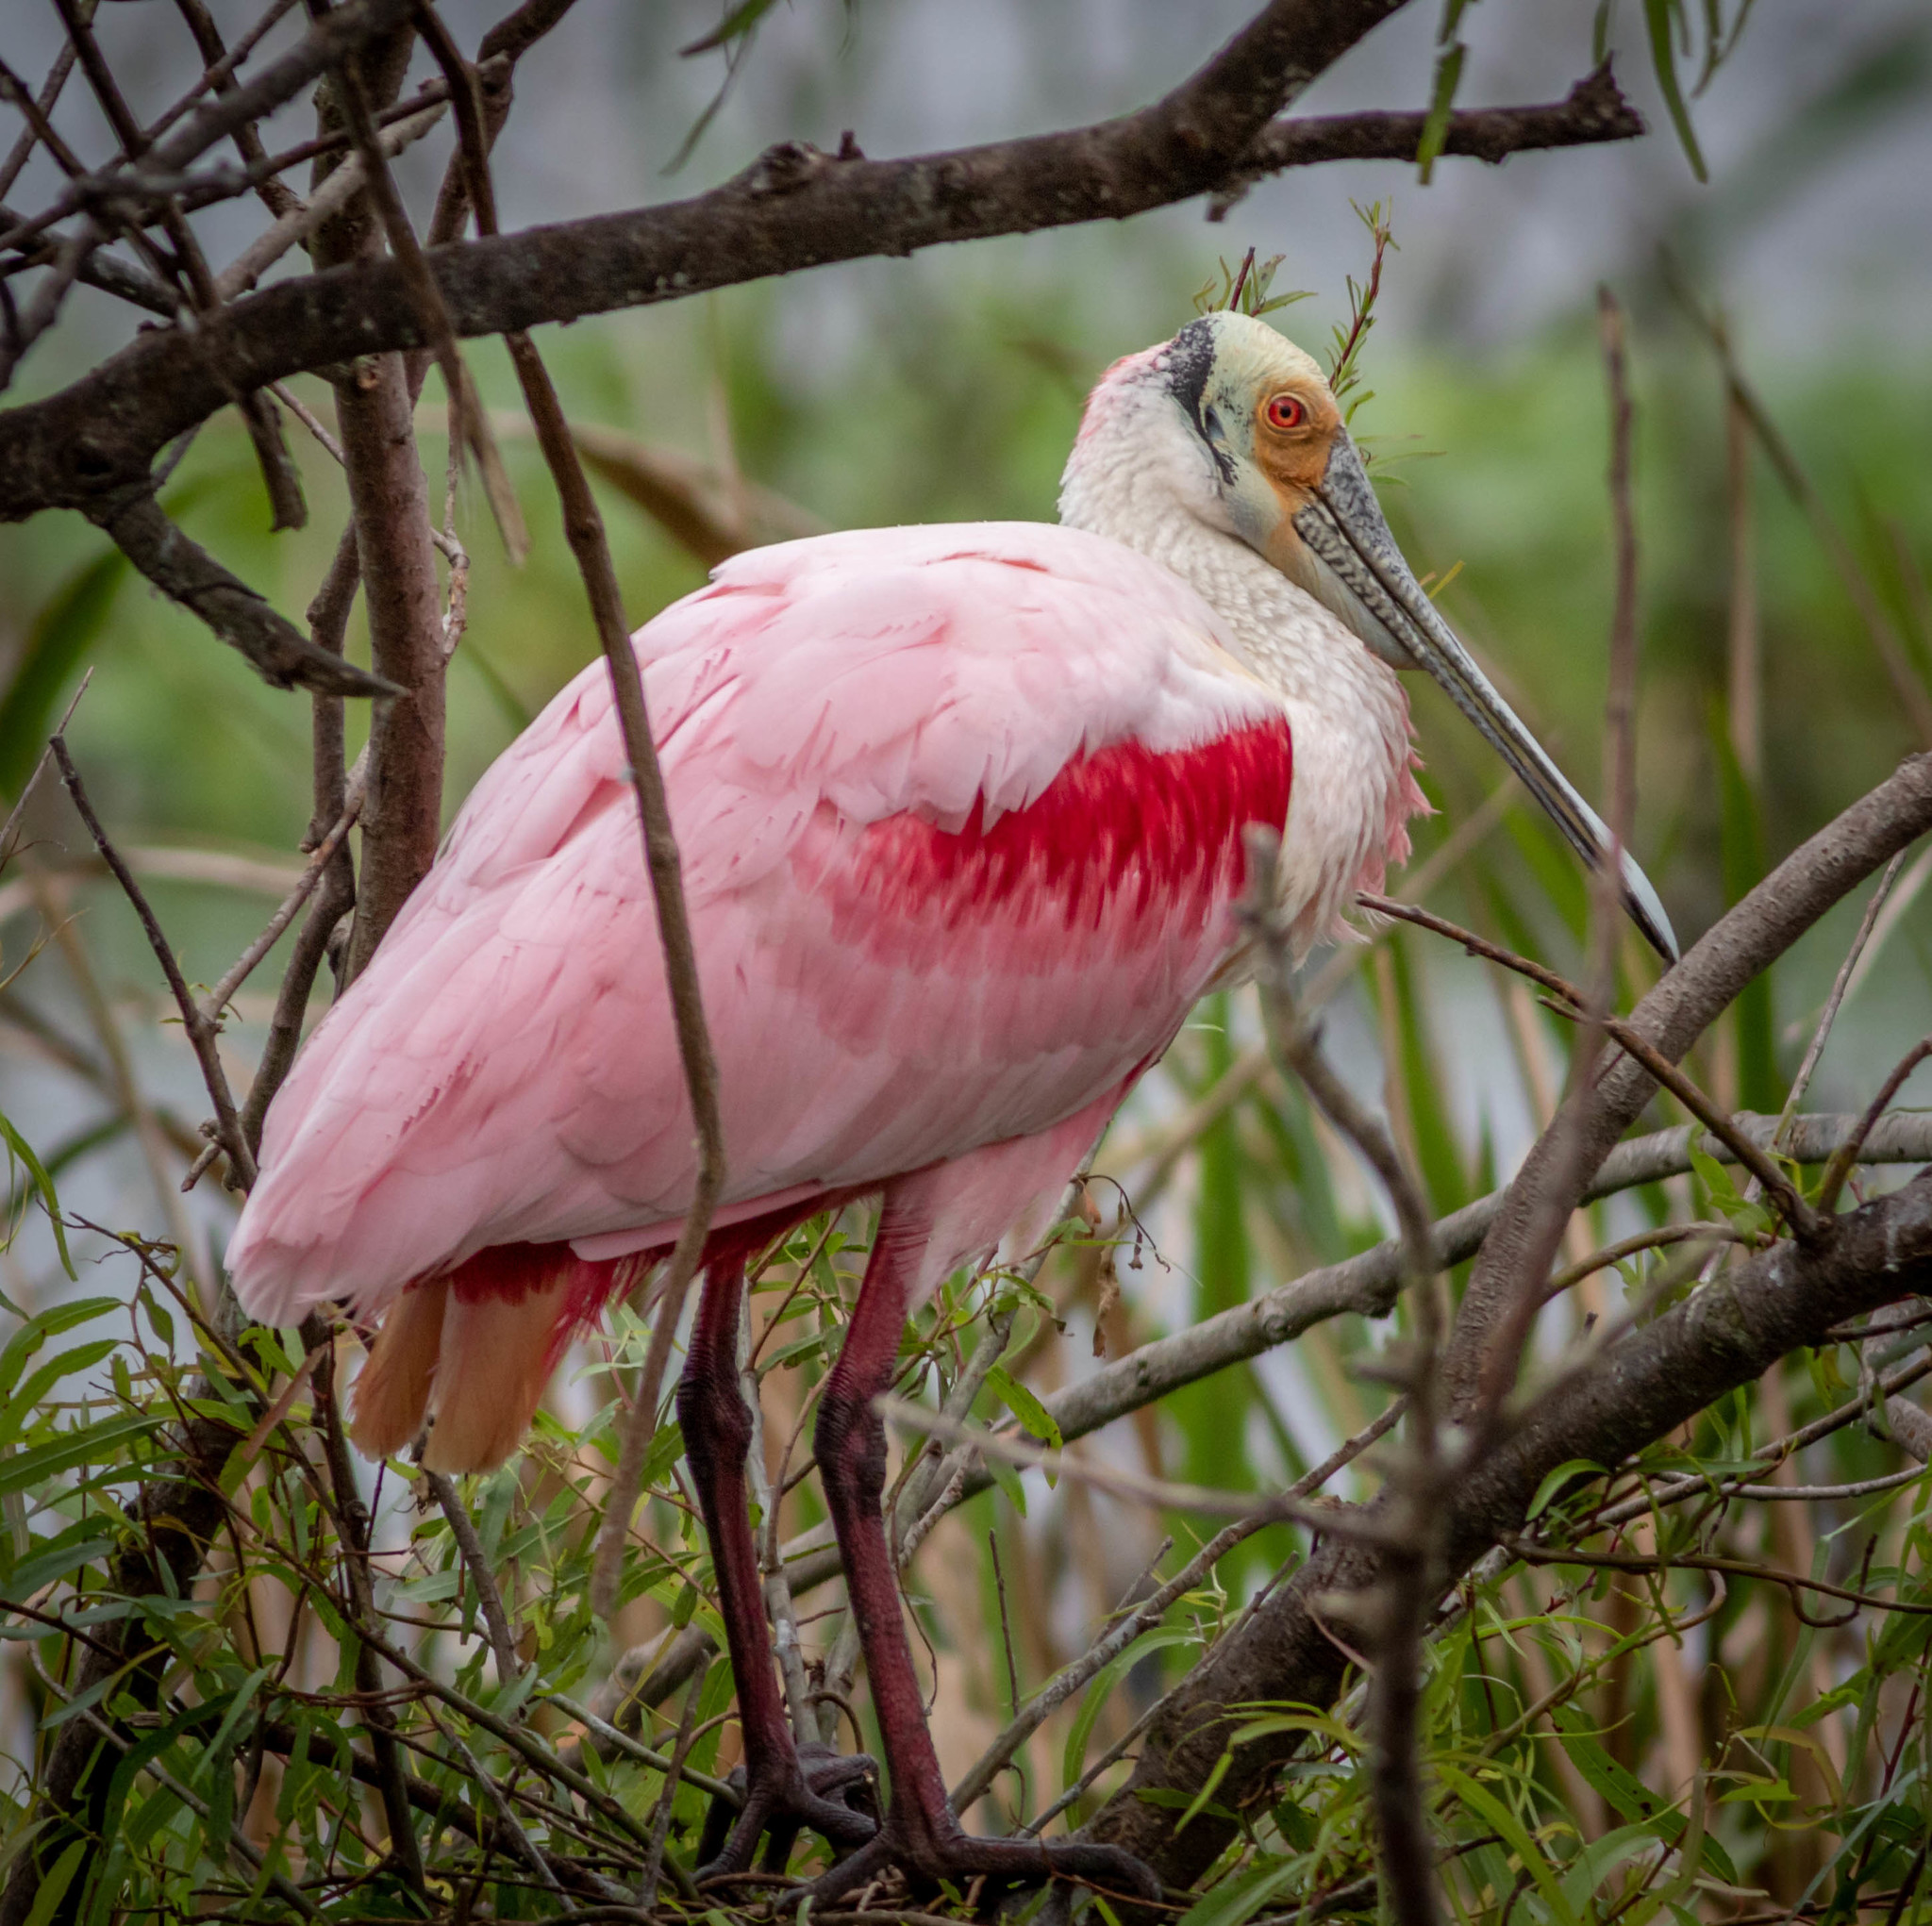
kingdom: Animalia
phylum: Chordata
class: Aves
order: Pelecaniformes
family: Threskiornithidae
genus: Platalea
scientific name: Platalea ajaja
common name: Roseate spoonbill
